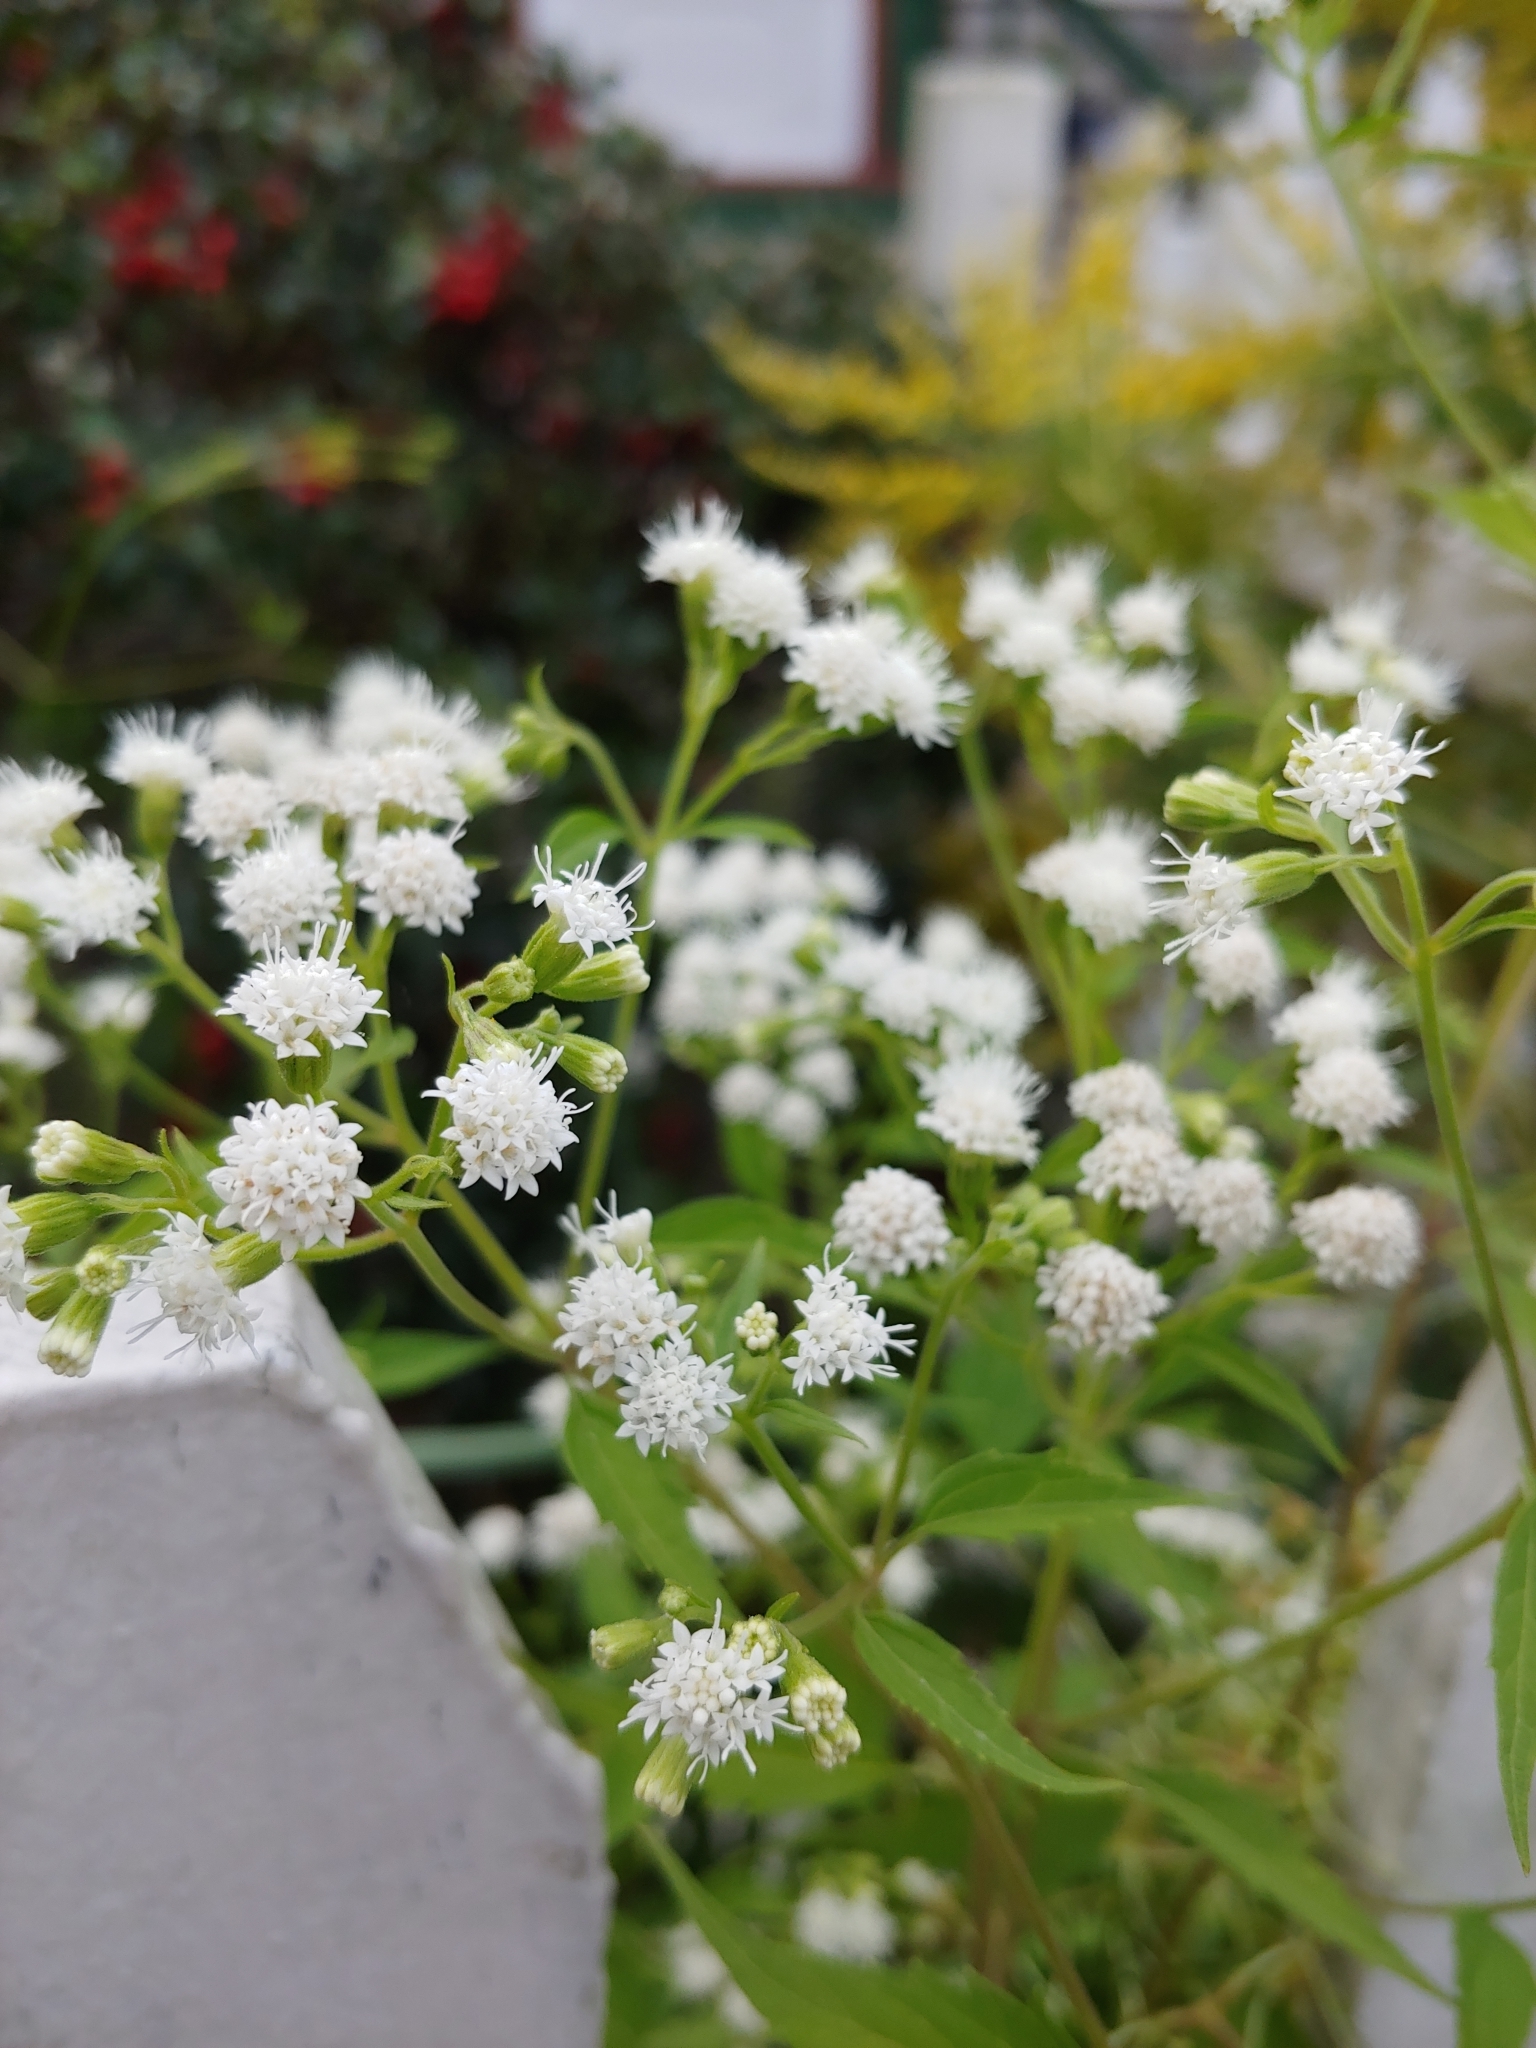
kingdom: Plantae
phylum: Tracheophyta
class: Magnoliopsida
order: Asterales
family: Asteraceae
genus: Ageratina
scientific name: Ageratina altissima
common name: White snakeroot
